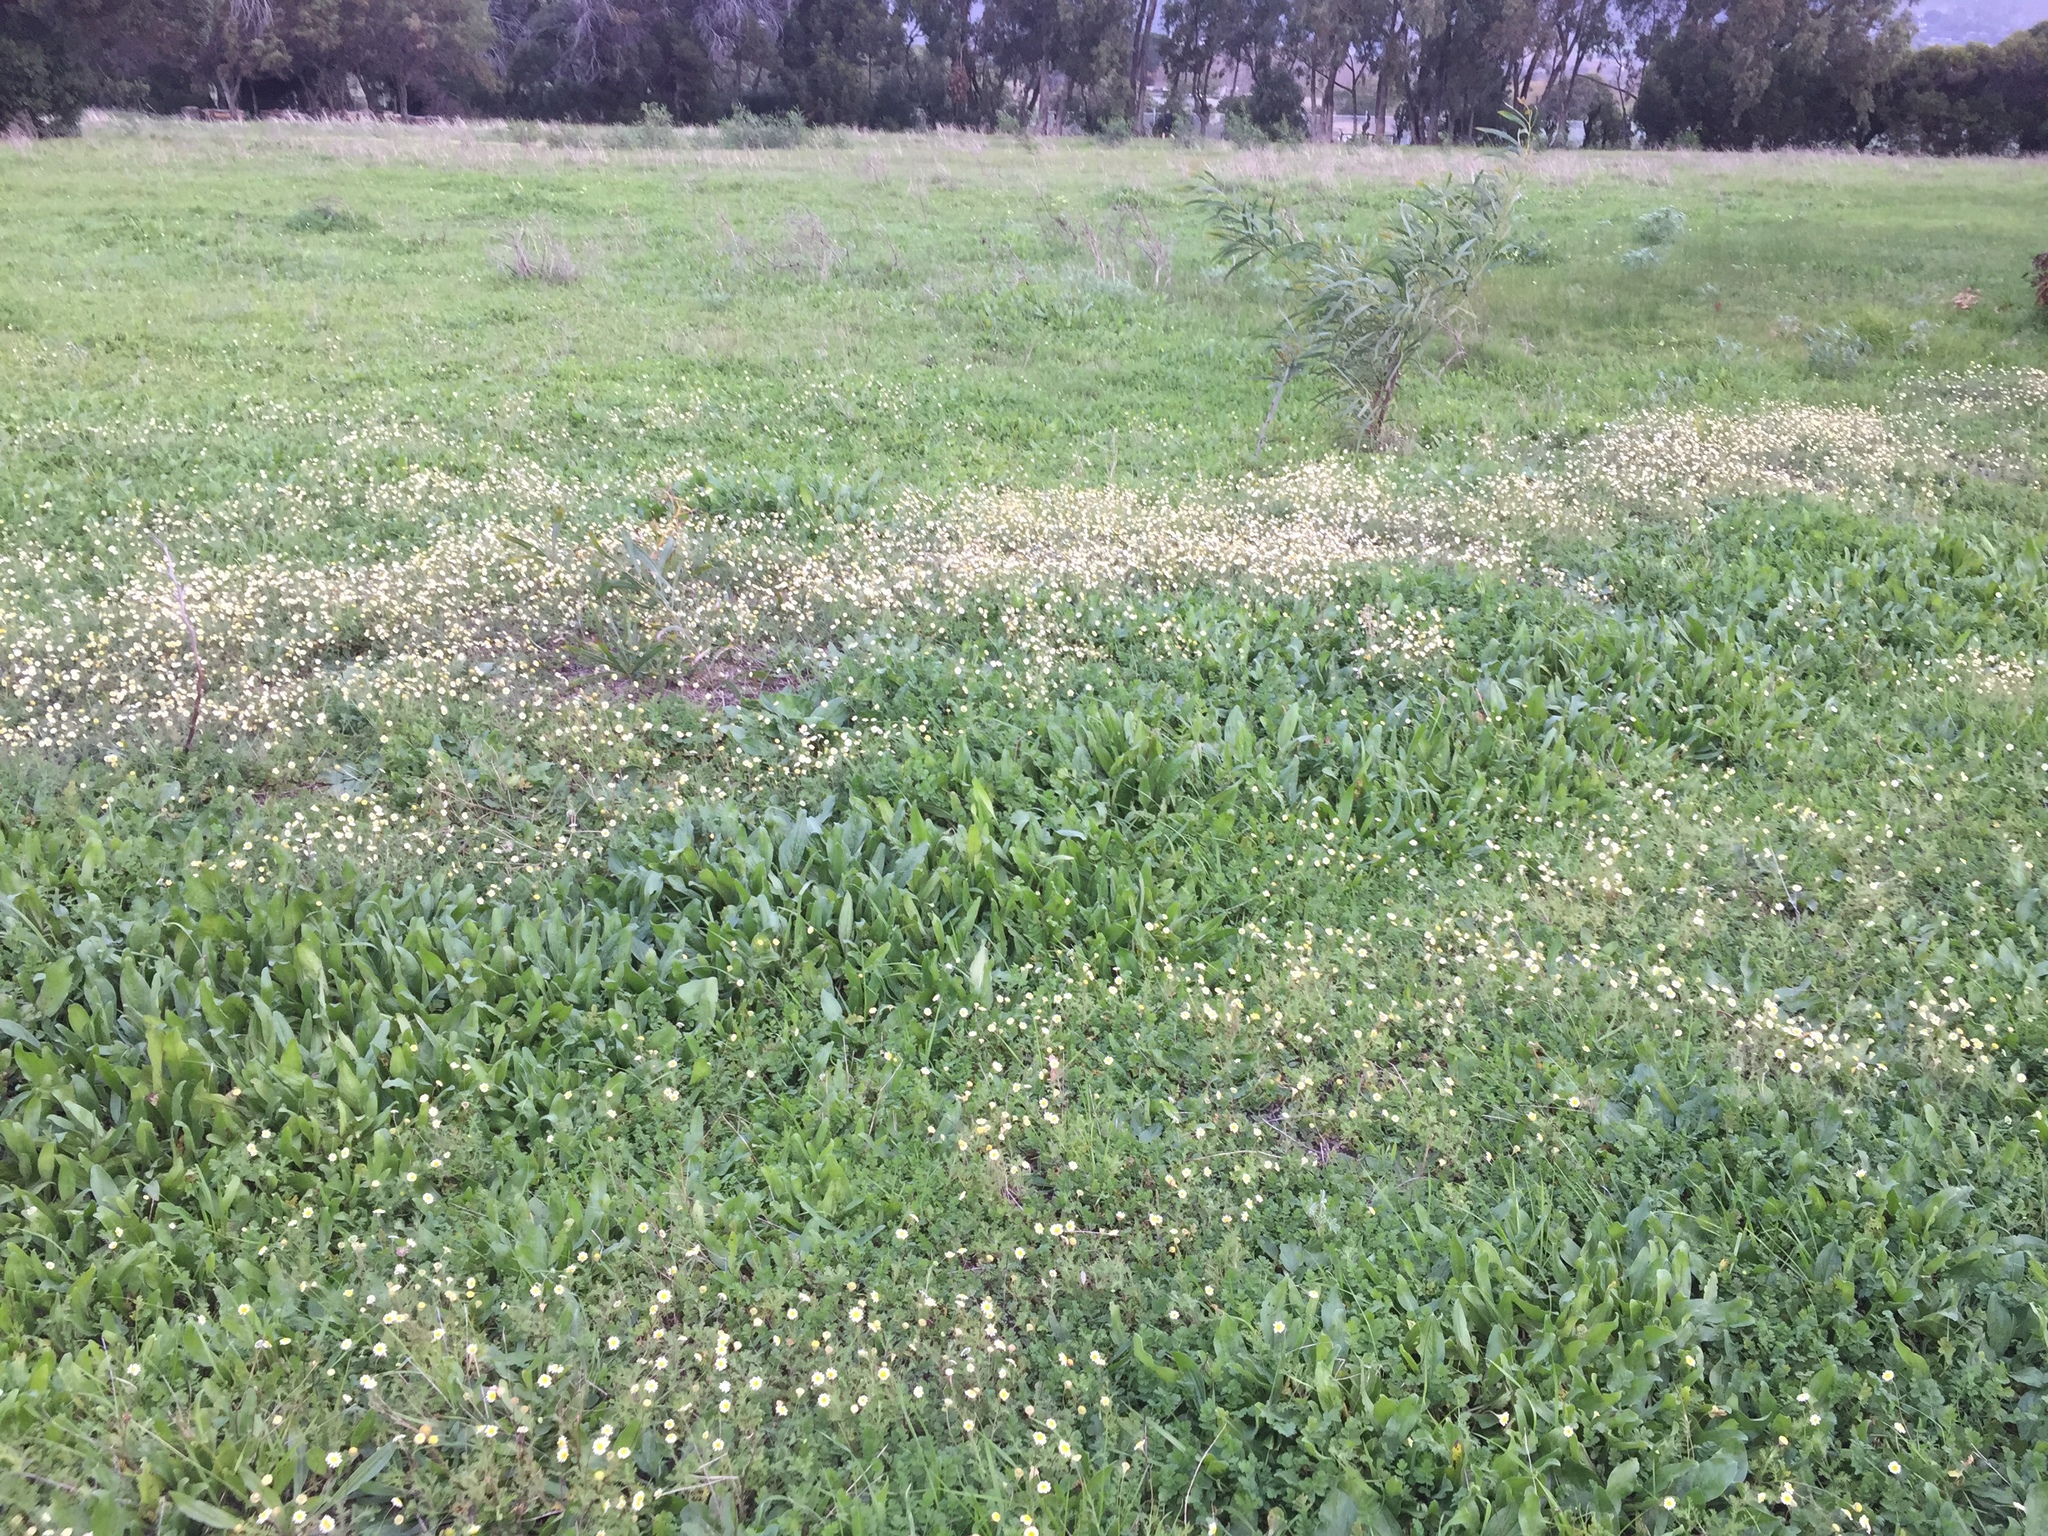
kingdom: Plantae
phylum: Tracheophyta
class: Magnoliopsida
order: Asterales
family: Asteraceae
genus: Cotula
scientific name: Cotula turbinata
